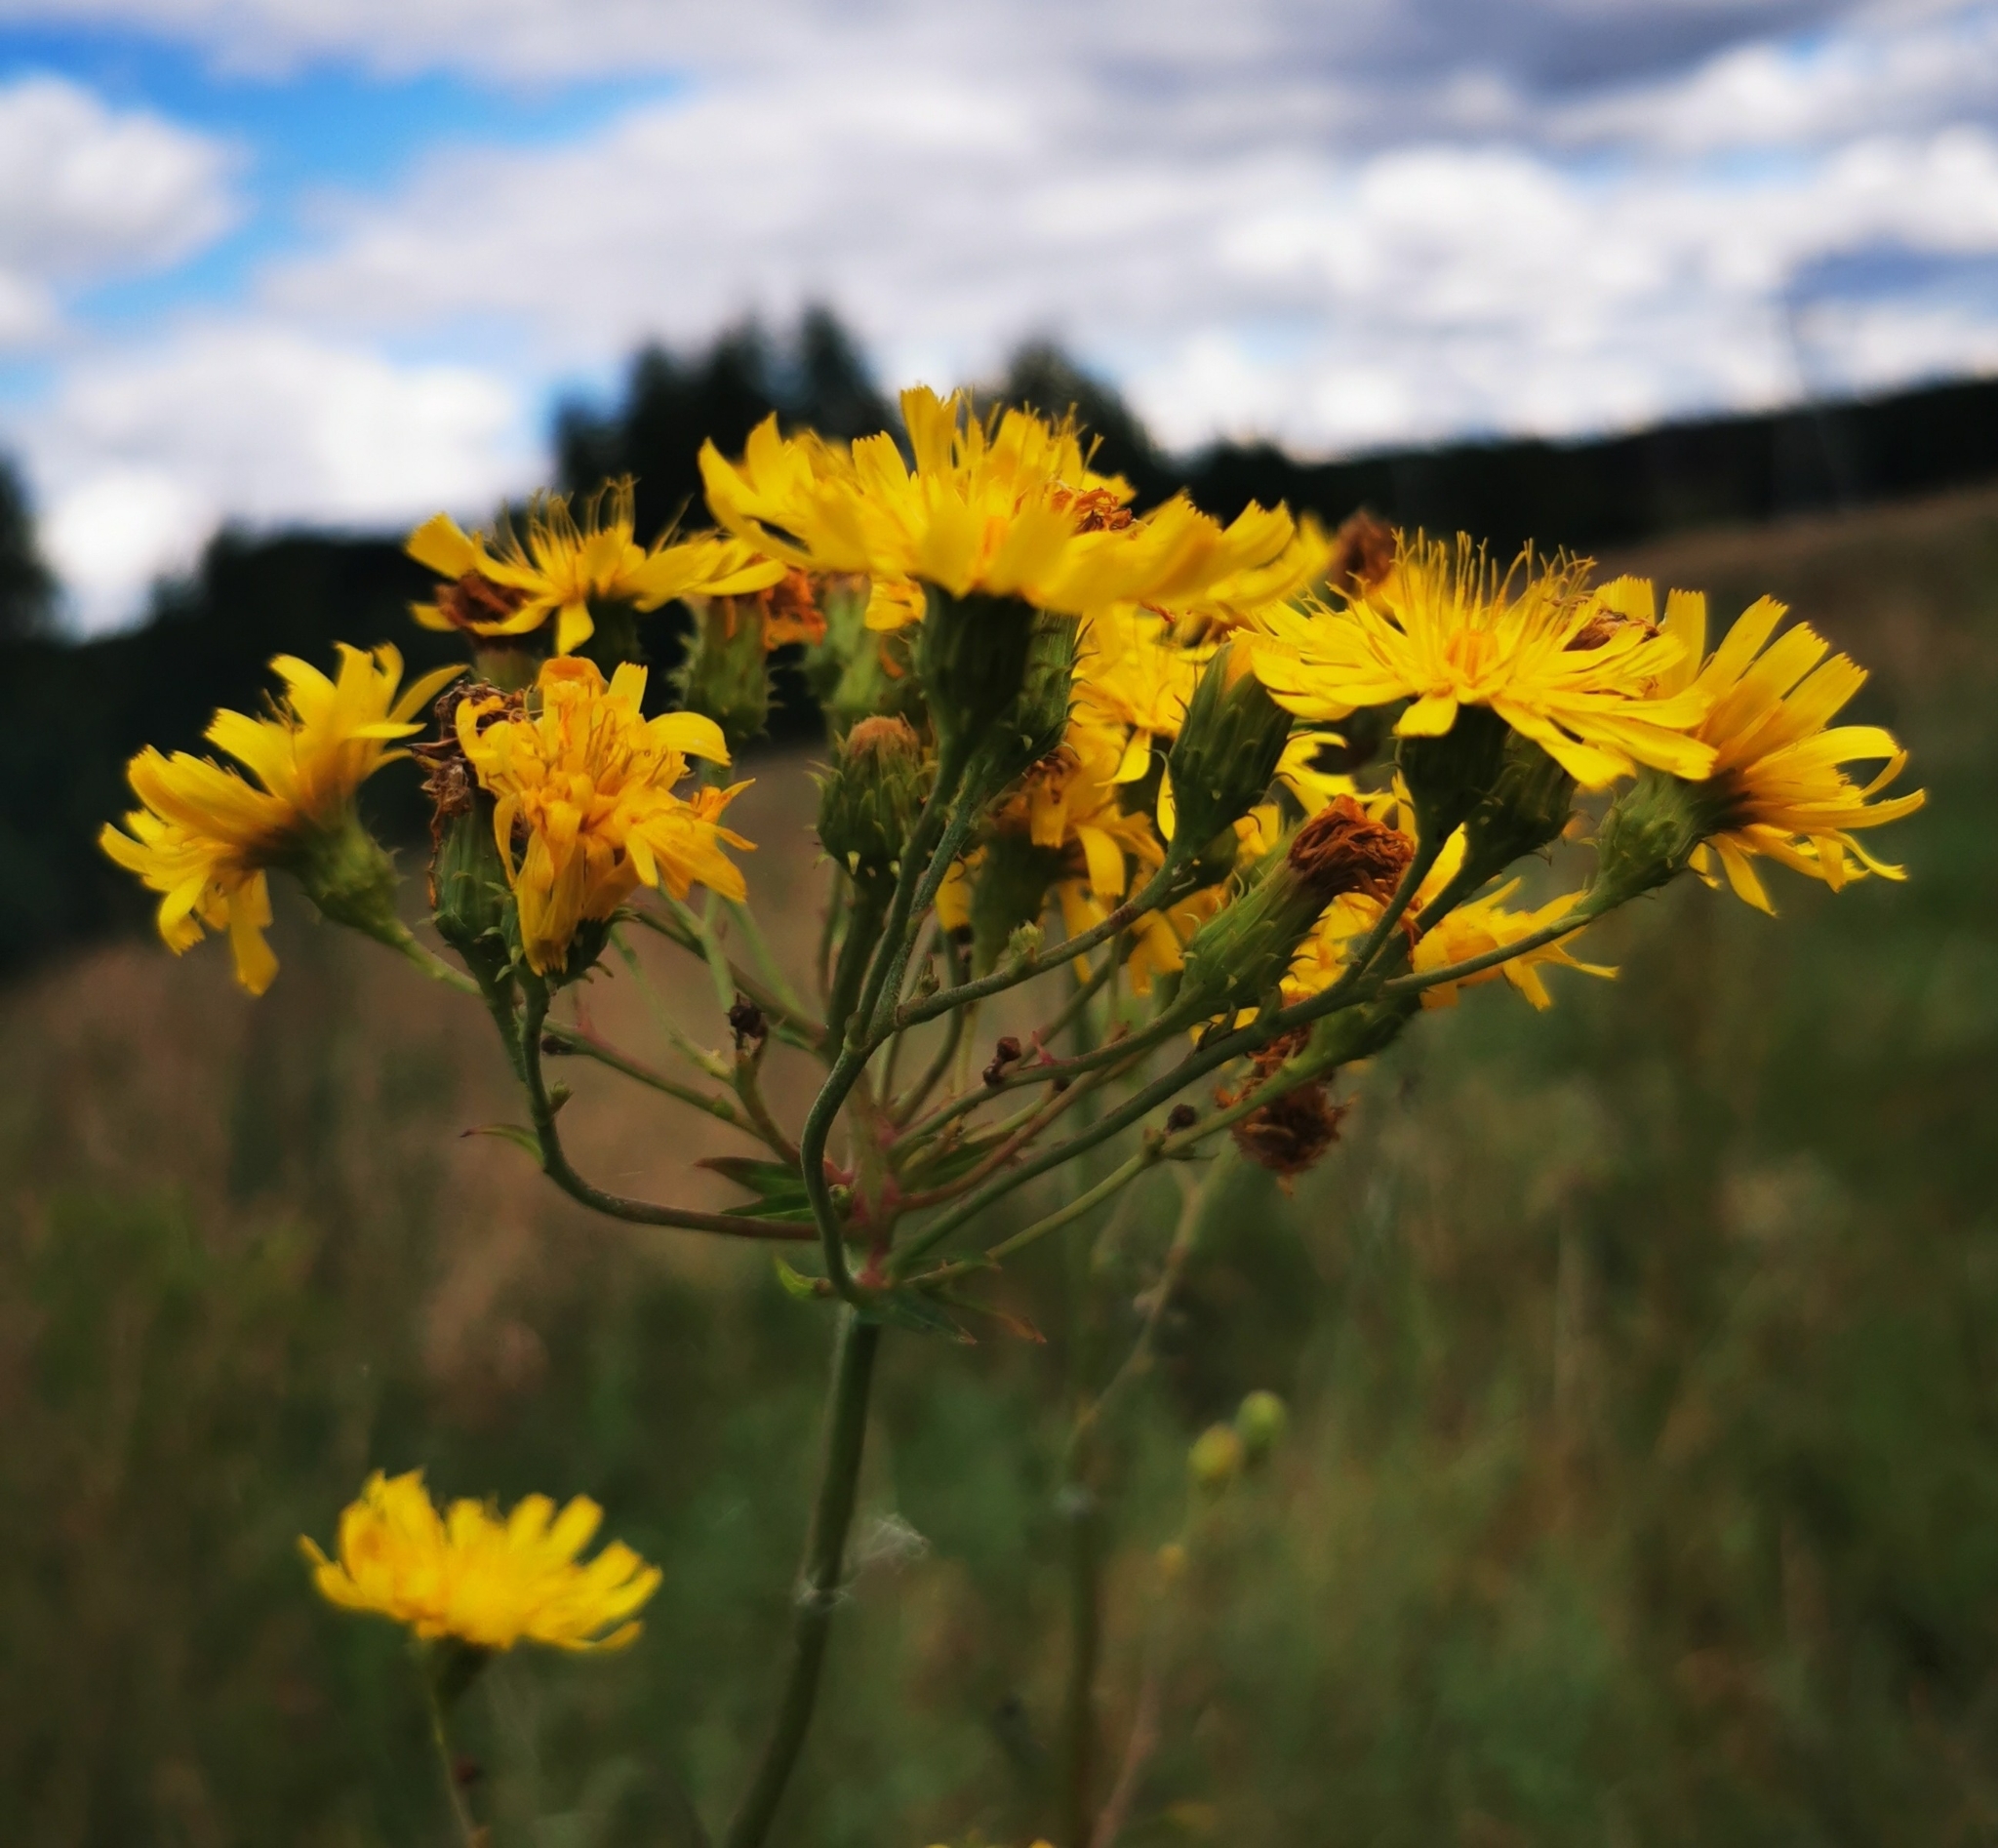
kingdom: Plantae
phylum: Tracheophyta
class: Magnoliopsida
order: Asterales
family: Asteraceae
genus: Hieracium
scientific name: Hieracium umbellatum
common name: Northern hawkweed
